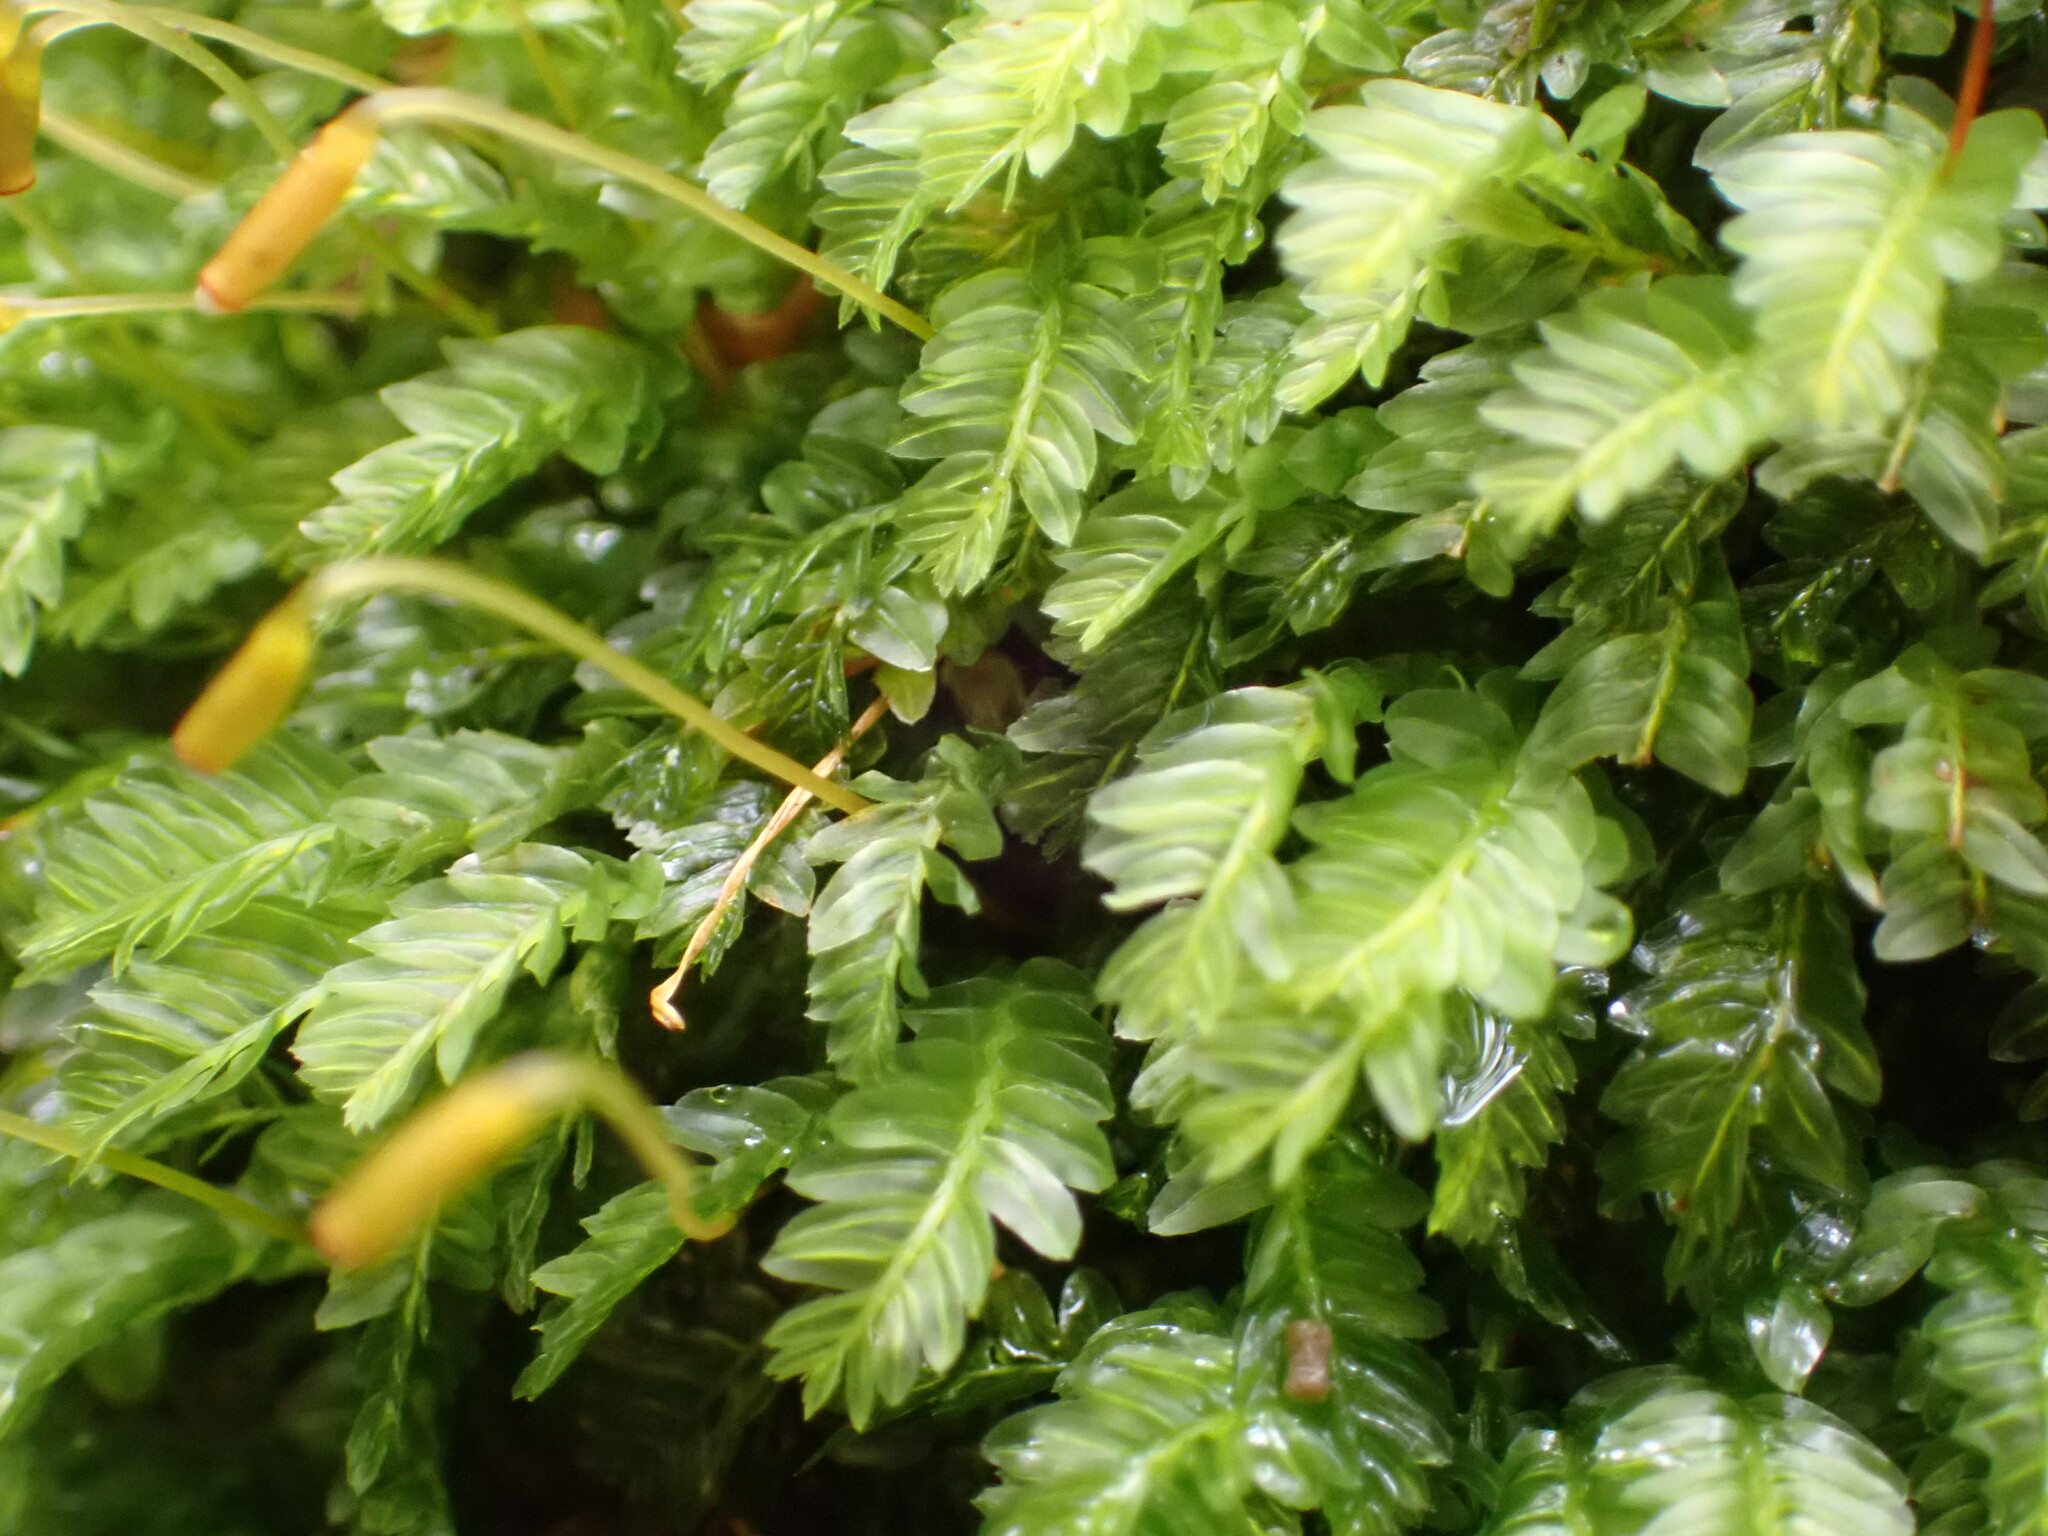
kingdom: Plantae
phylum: Bryophyta
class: Bryopsida
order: Rhizogoniales
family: Rhizogoniaceae
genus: Rhizogonium
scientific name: Rhizogonium distichum
